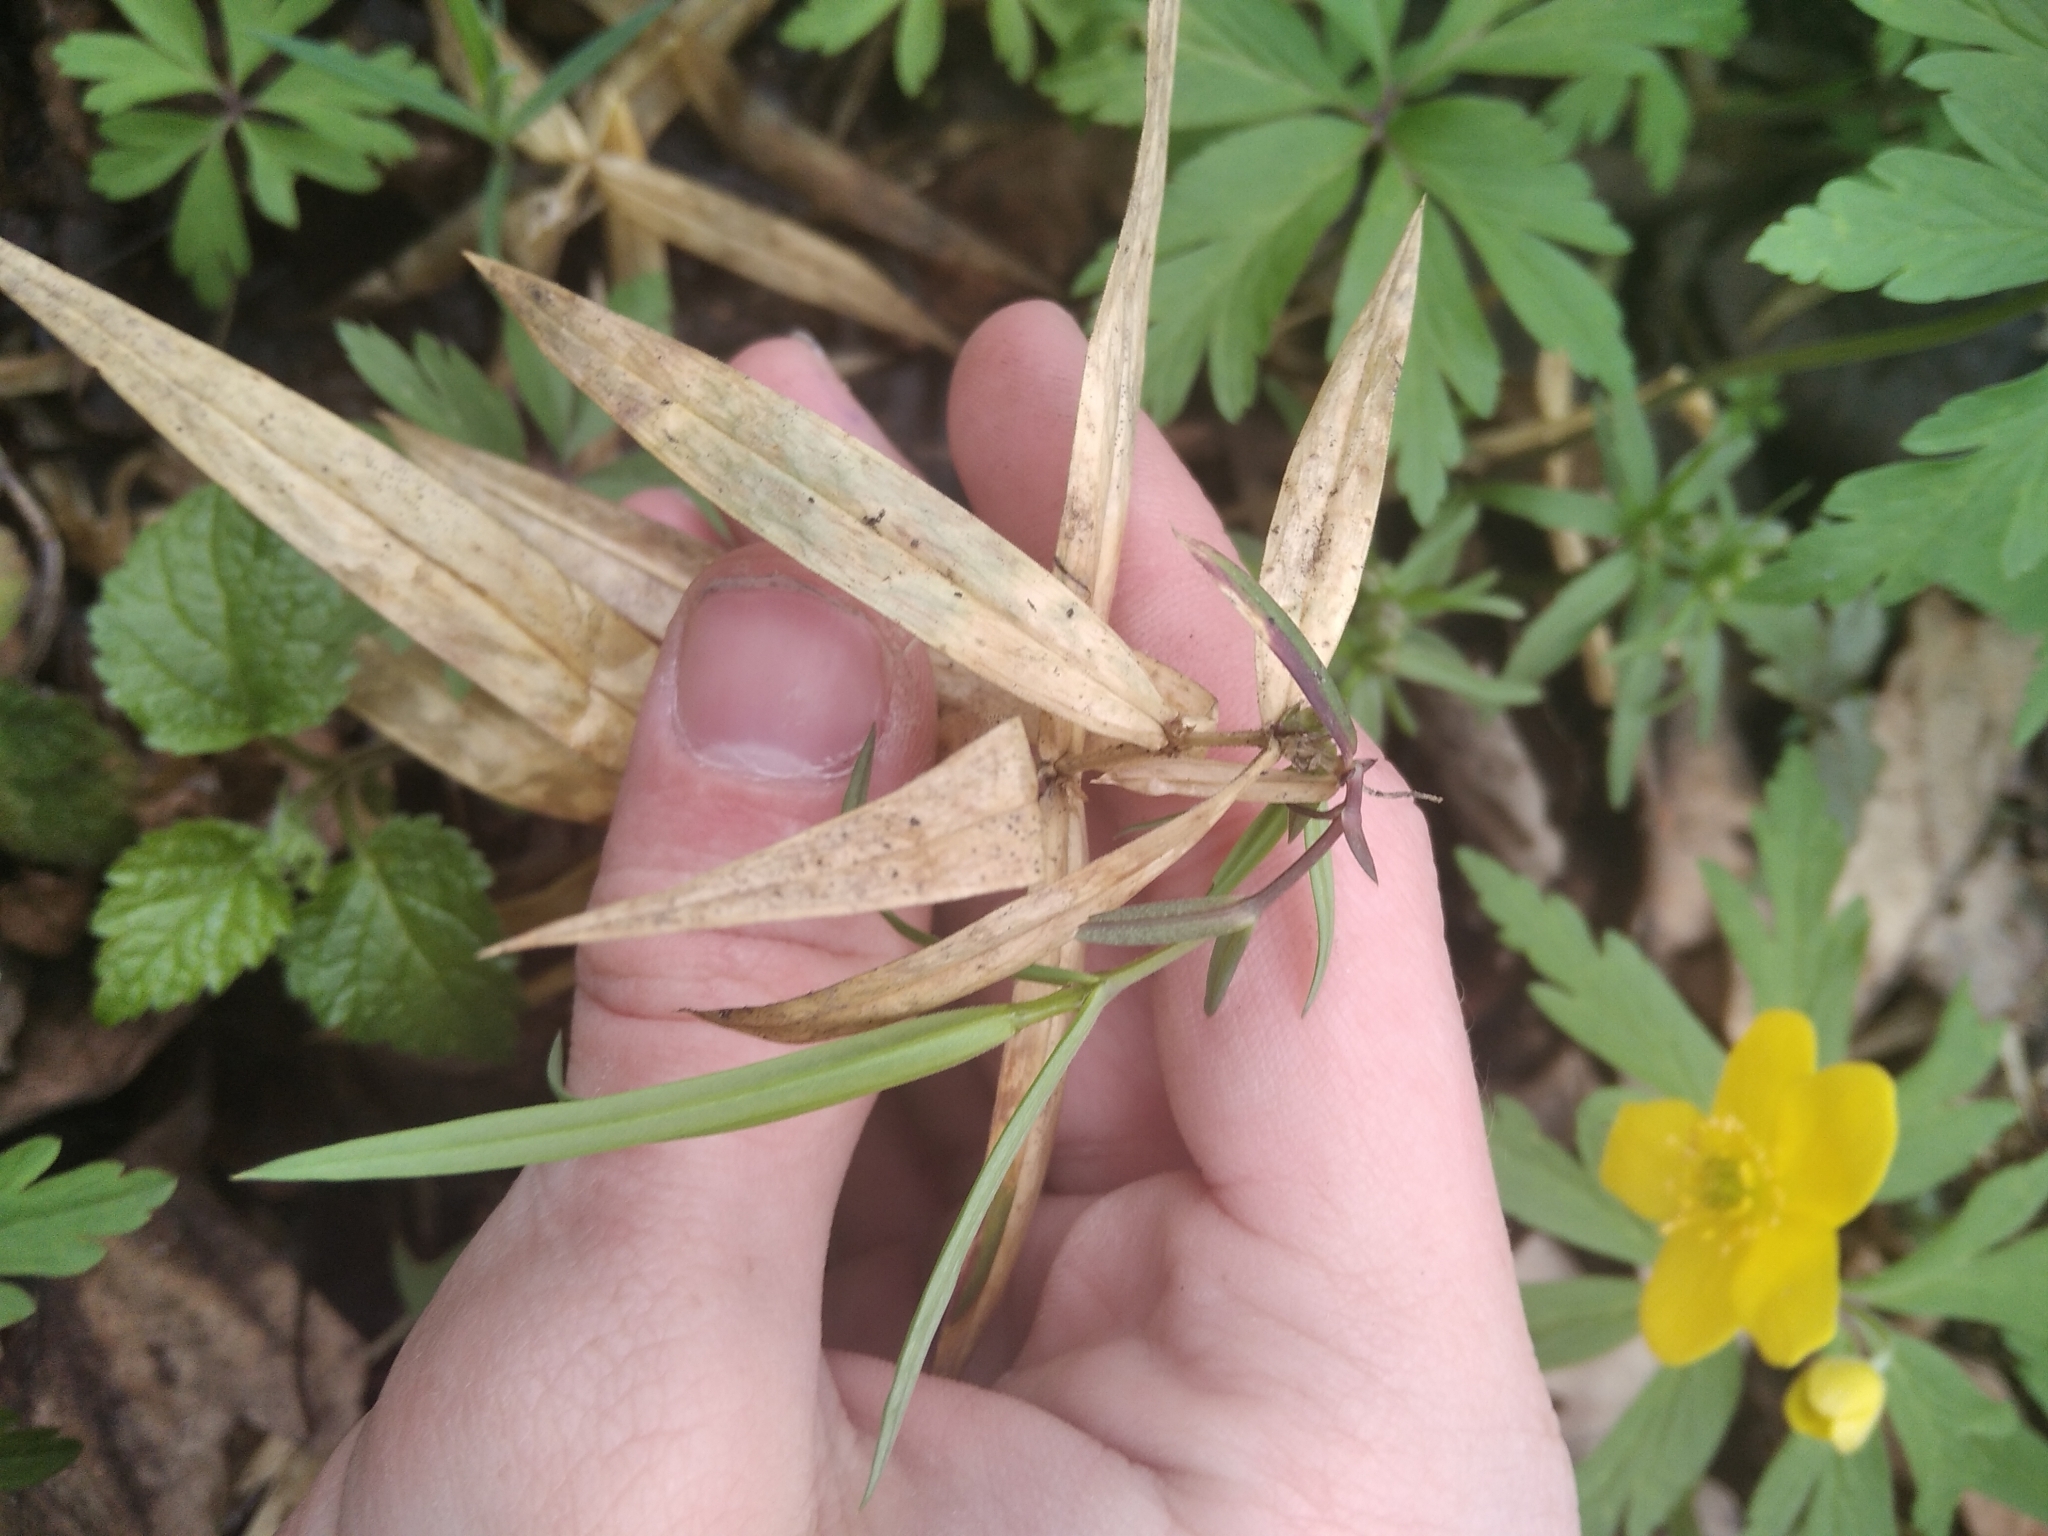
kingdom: Plantae
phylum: Tracheophyta
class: Magnoliopsida
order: Caryophyllales
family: Caryophyllaceae
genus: Rabelera
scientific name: Rabelera holostea
